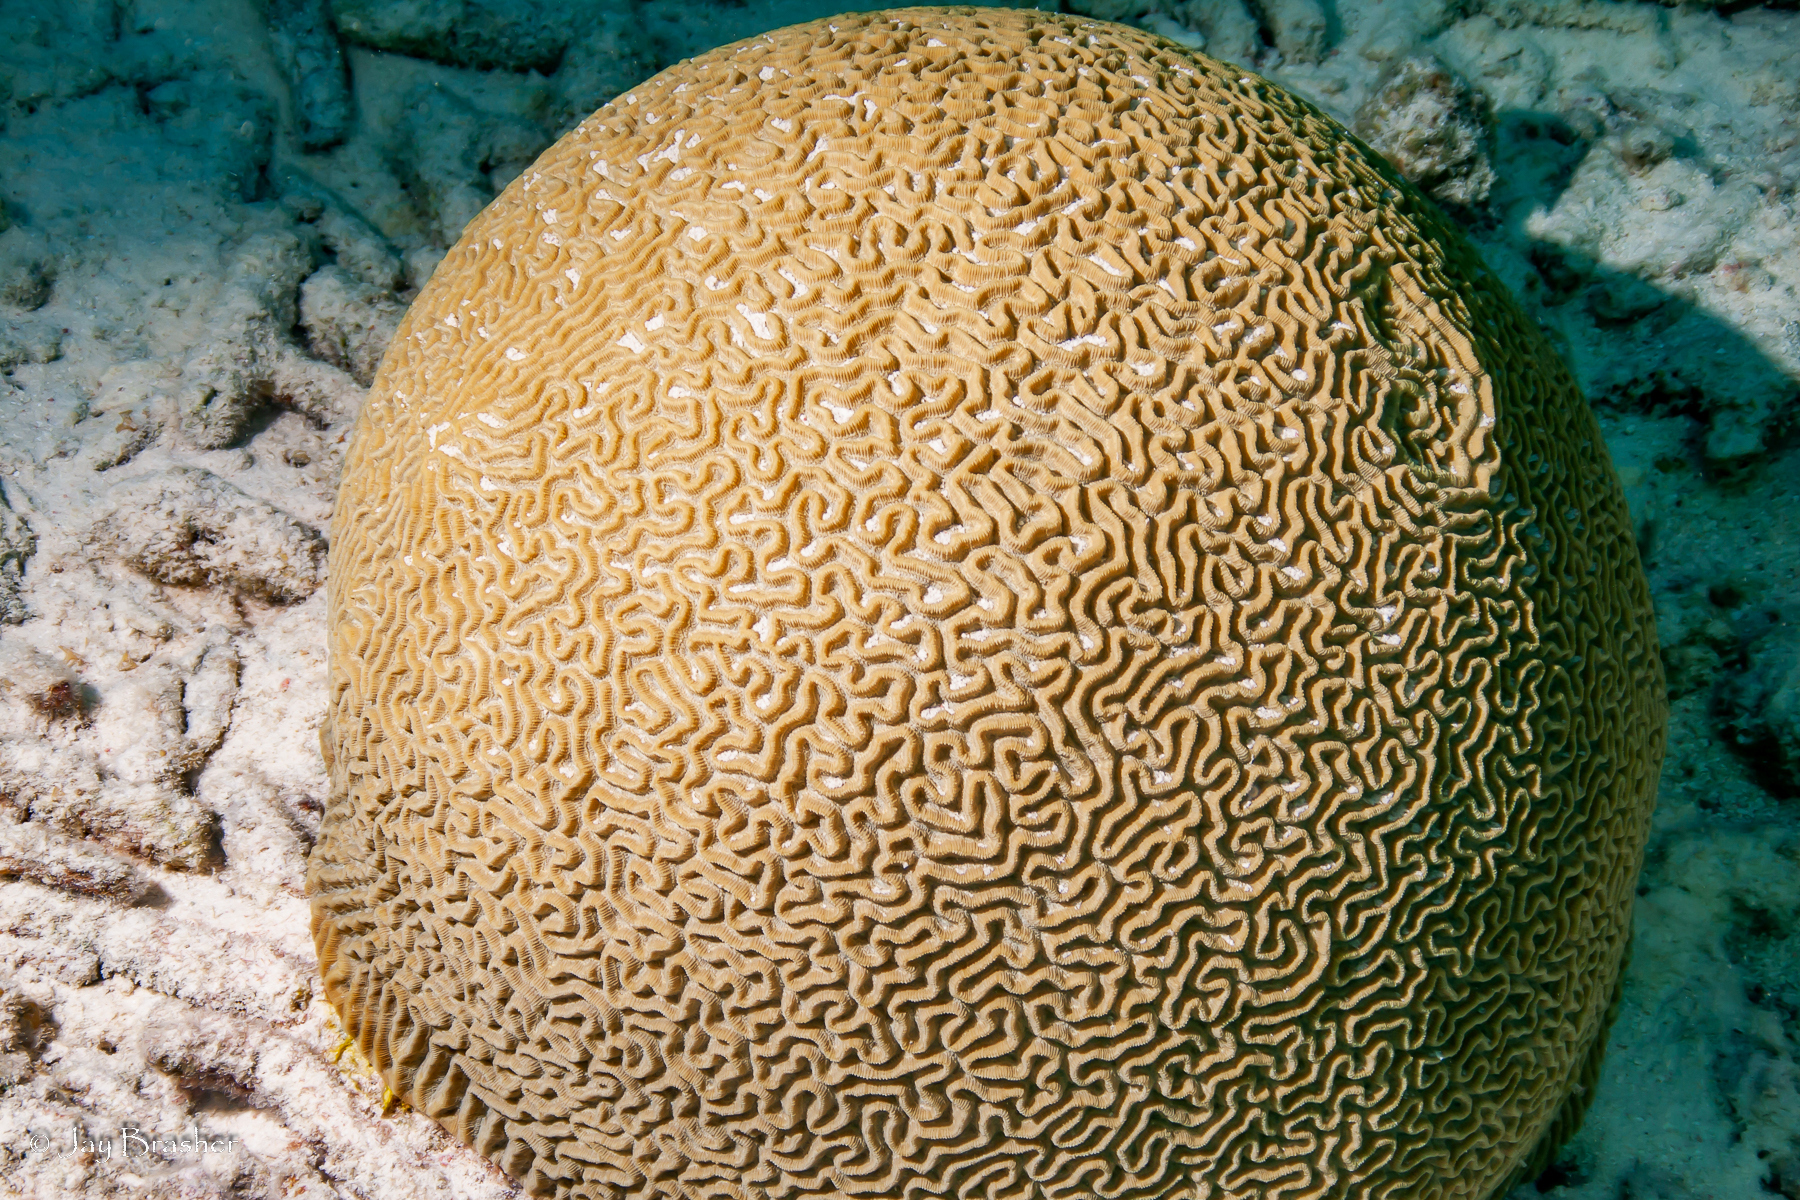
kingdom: Animalia
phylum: Cnidaria
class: Anthozoa
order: Scleractinia
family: Faviidae
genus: Pseudodiploria
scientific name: Pseudodiploria strigosa
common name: Symmetrical brain coral
